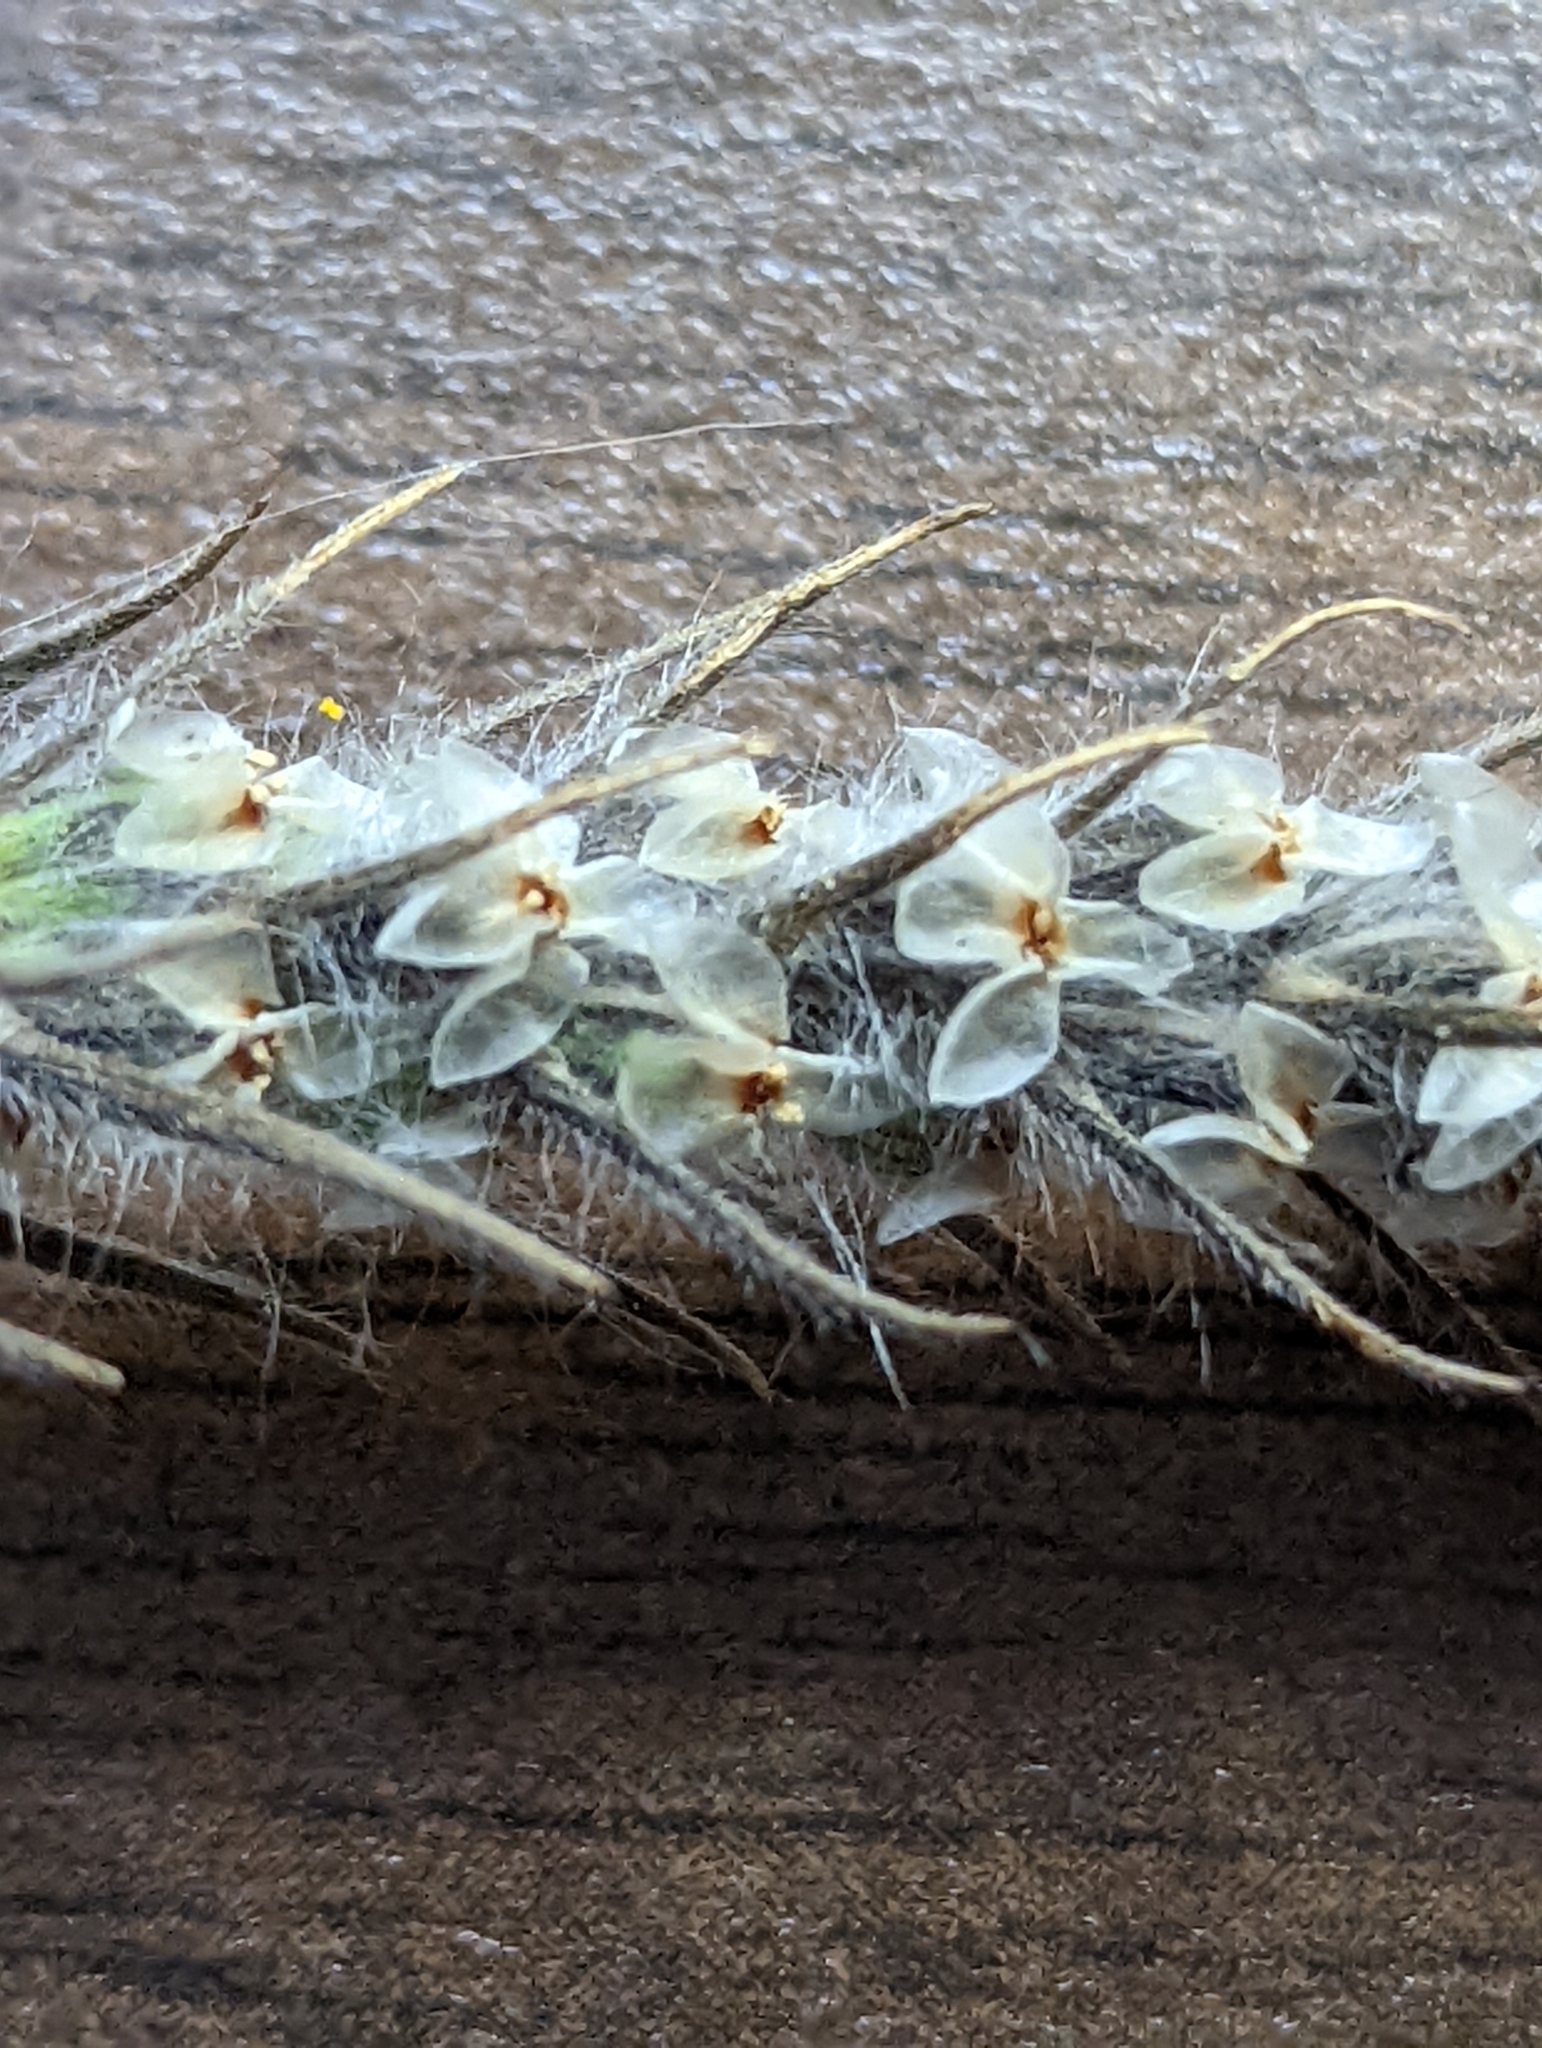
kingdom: Plantae
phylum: Tracheophyta
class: Magnoliopsida
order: Lamiales
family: Plantaginaceae
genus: Plantago
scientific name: Plantago aristata
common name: Bracted plantain
